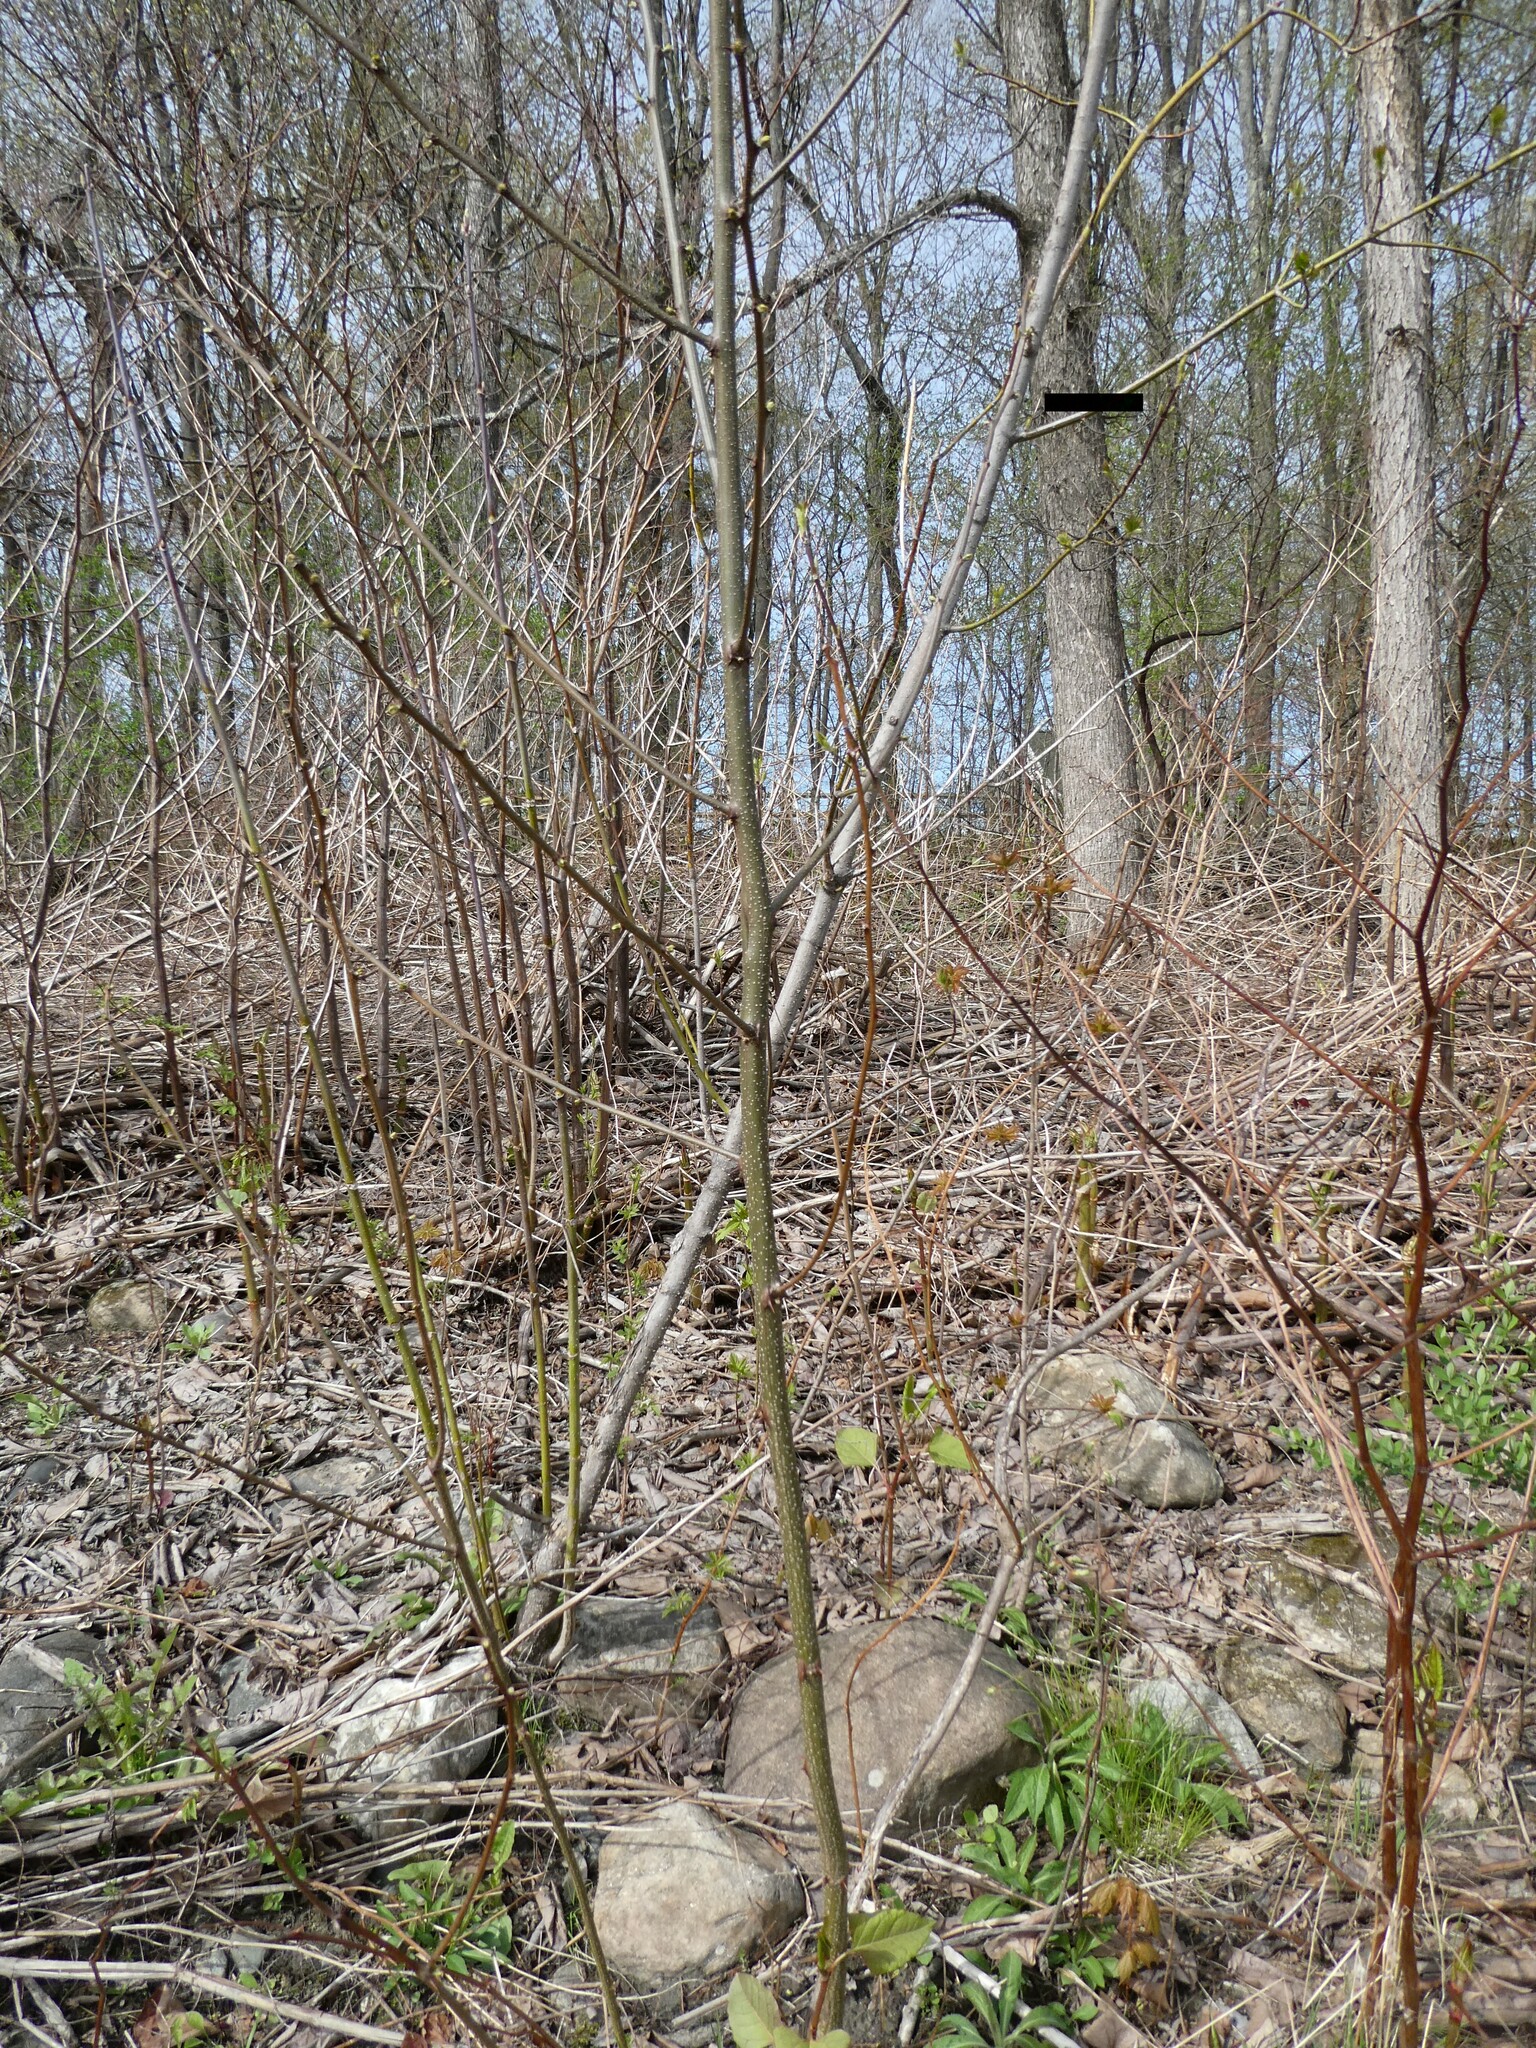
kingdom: Plantae
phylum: Tracheophyta
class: Magnoliopsida
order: Fabales
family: Fabaceae
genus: Robinia
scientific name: Robinia pseudoacacia
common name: Black locust
